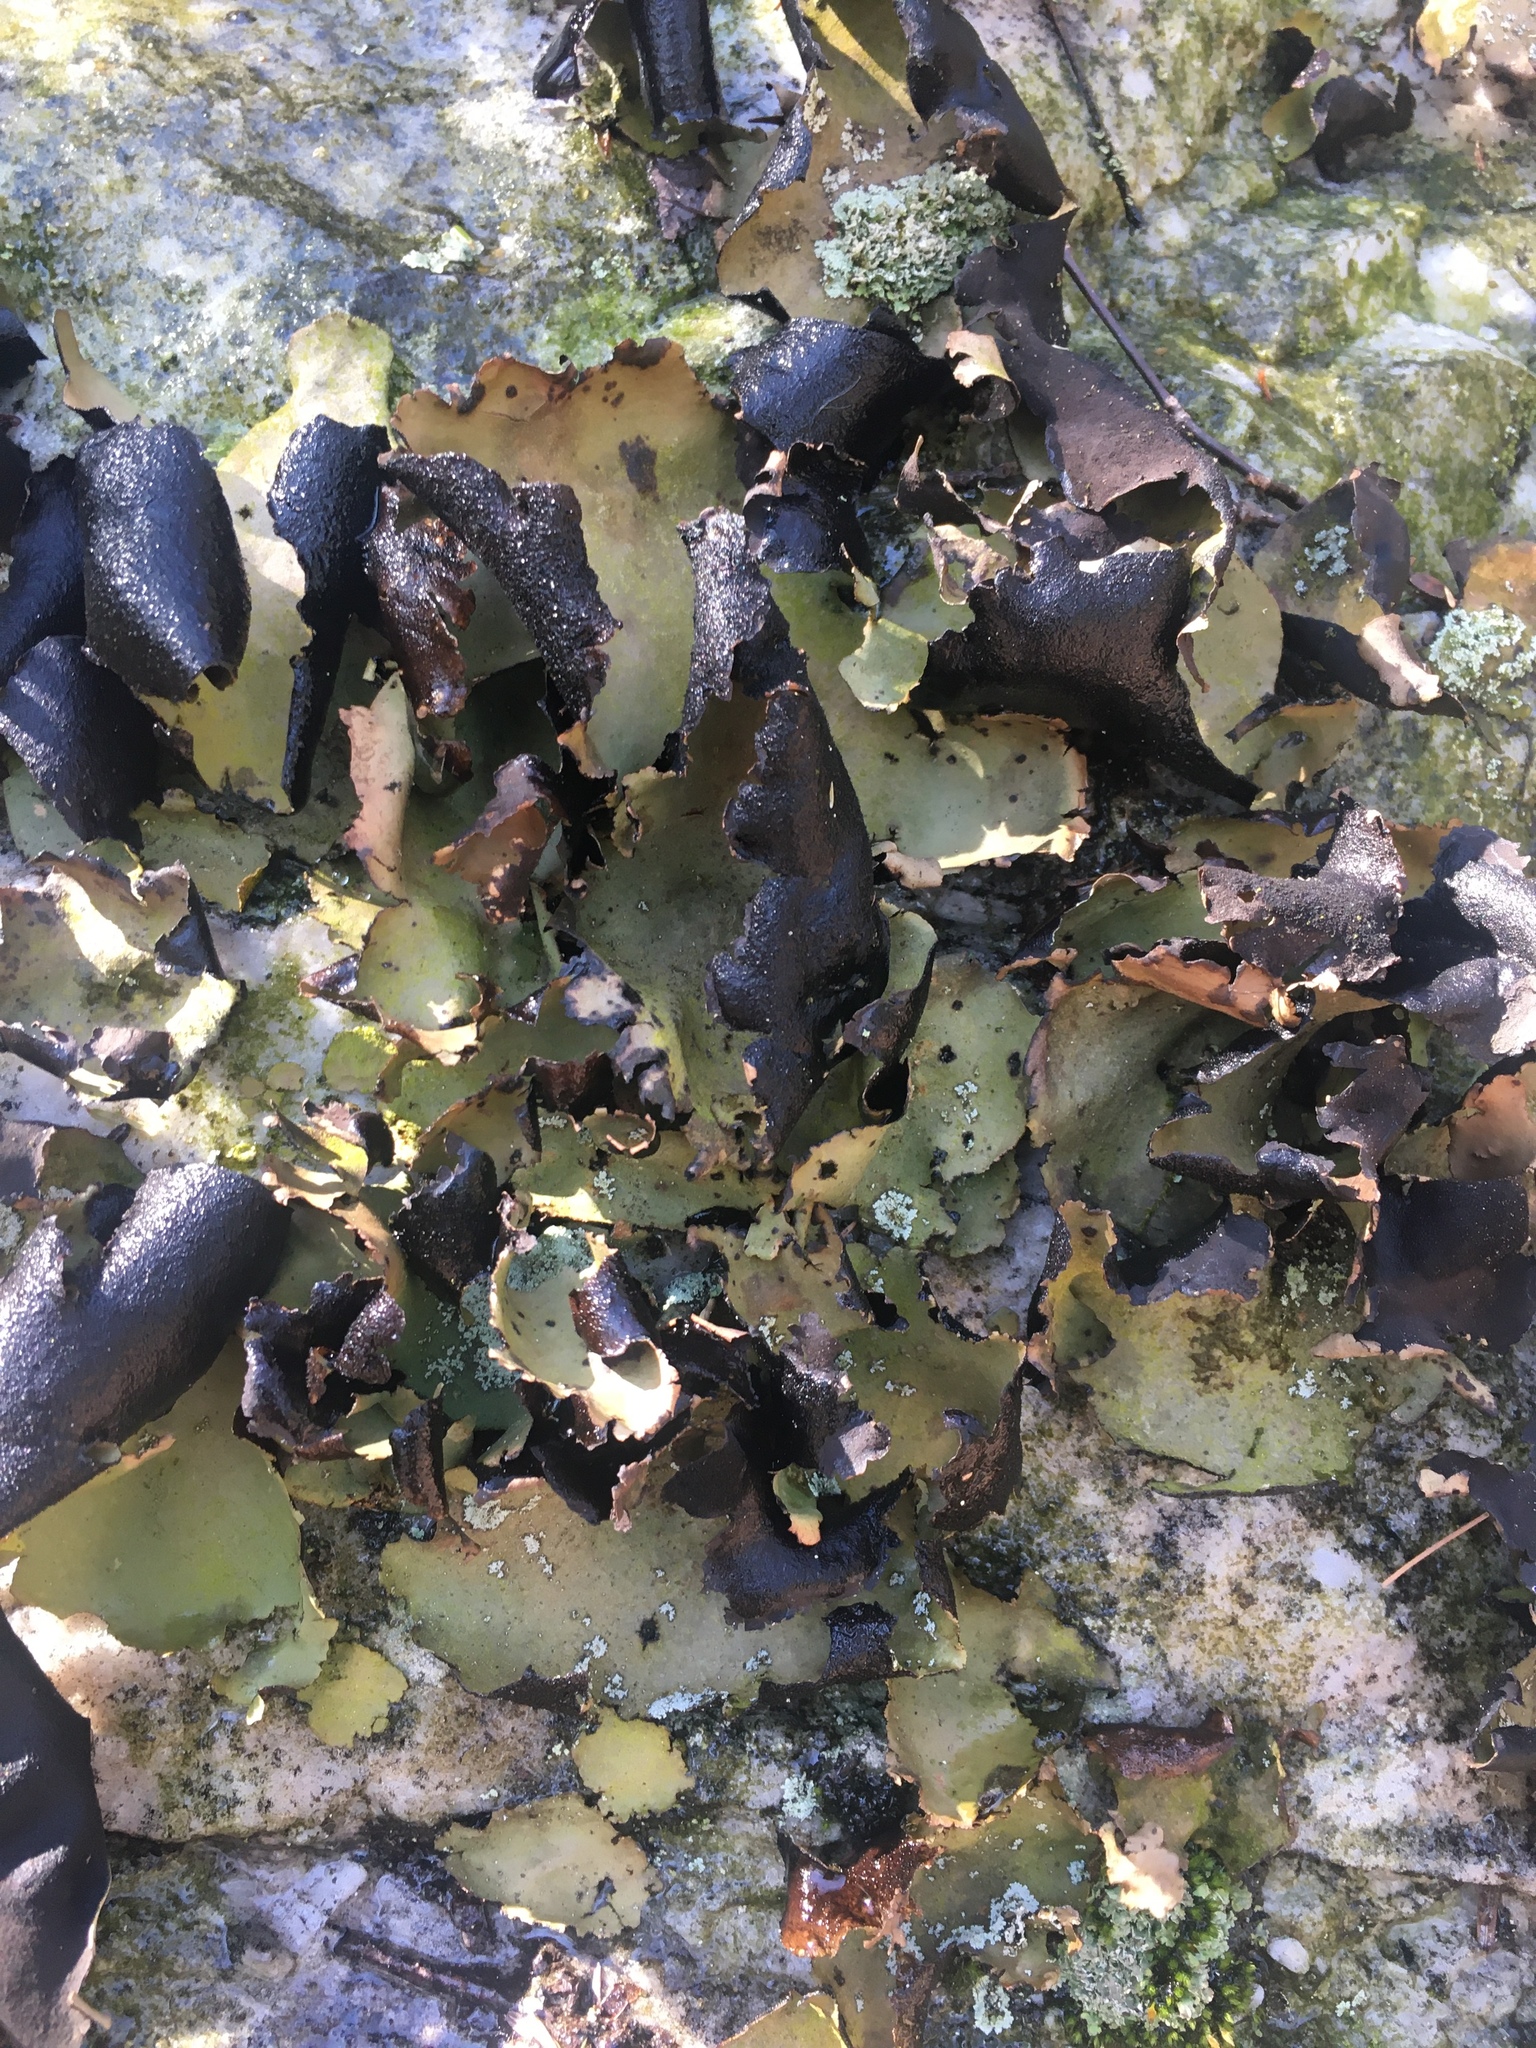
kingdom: Fungi
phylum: Ascomycota
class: Lecanoromycetes
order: Umbilicariales
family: Umbilicariaceae
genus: Umbilicaria
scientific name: Umbilicaria mammulata
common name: Smooth rock tripe
